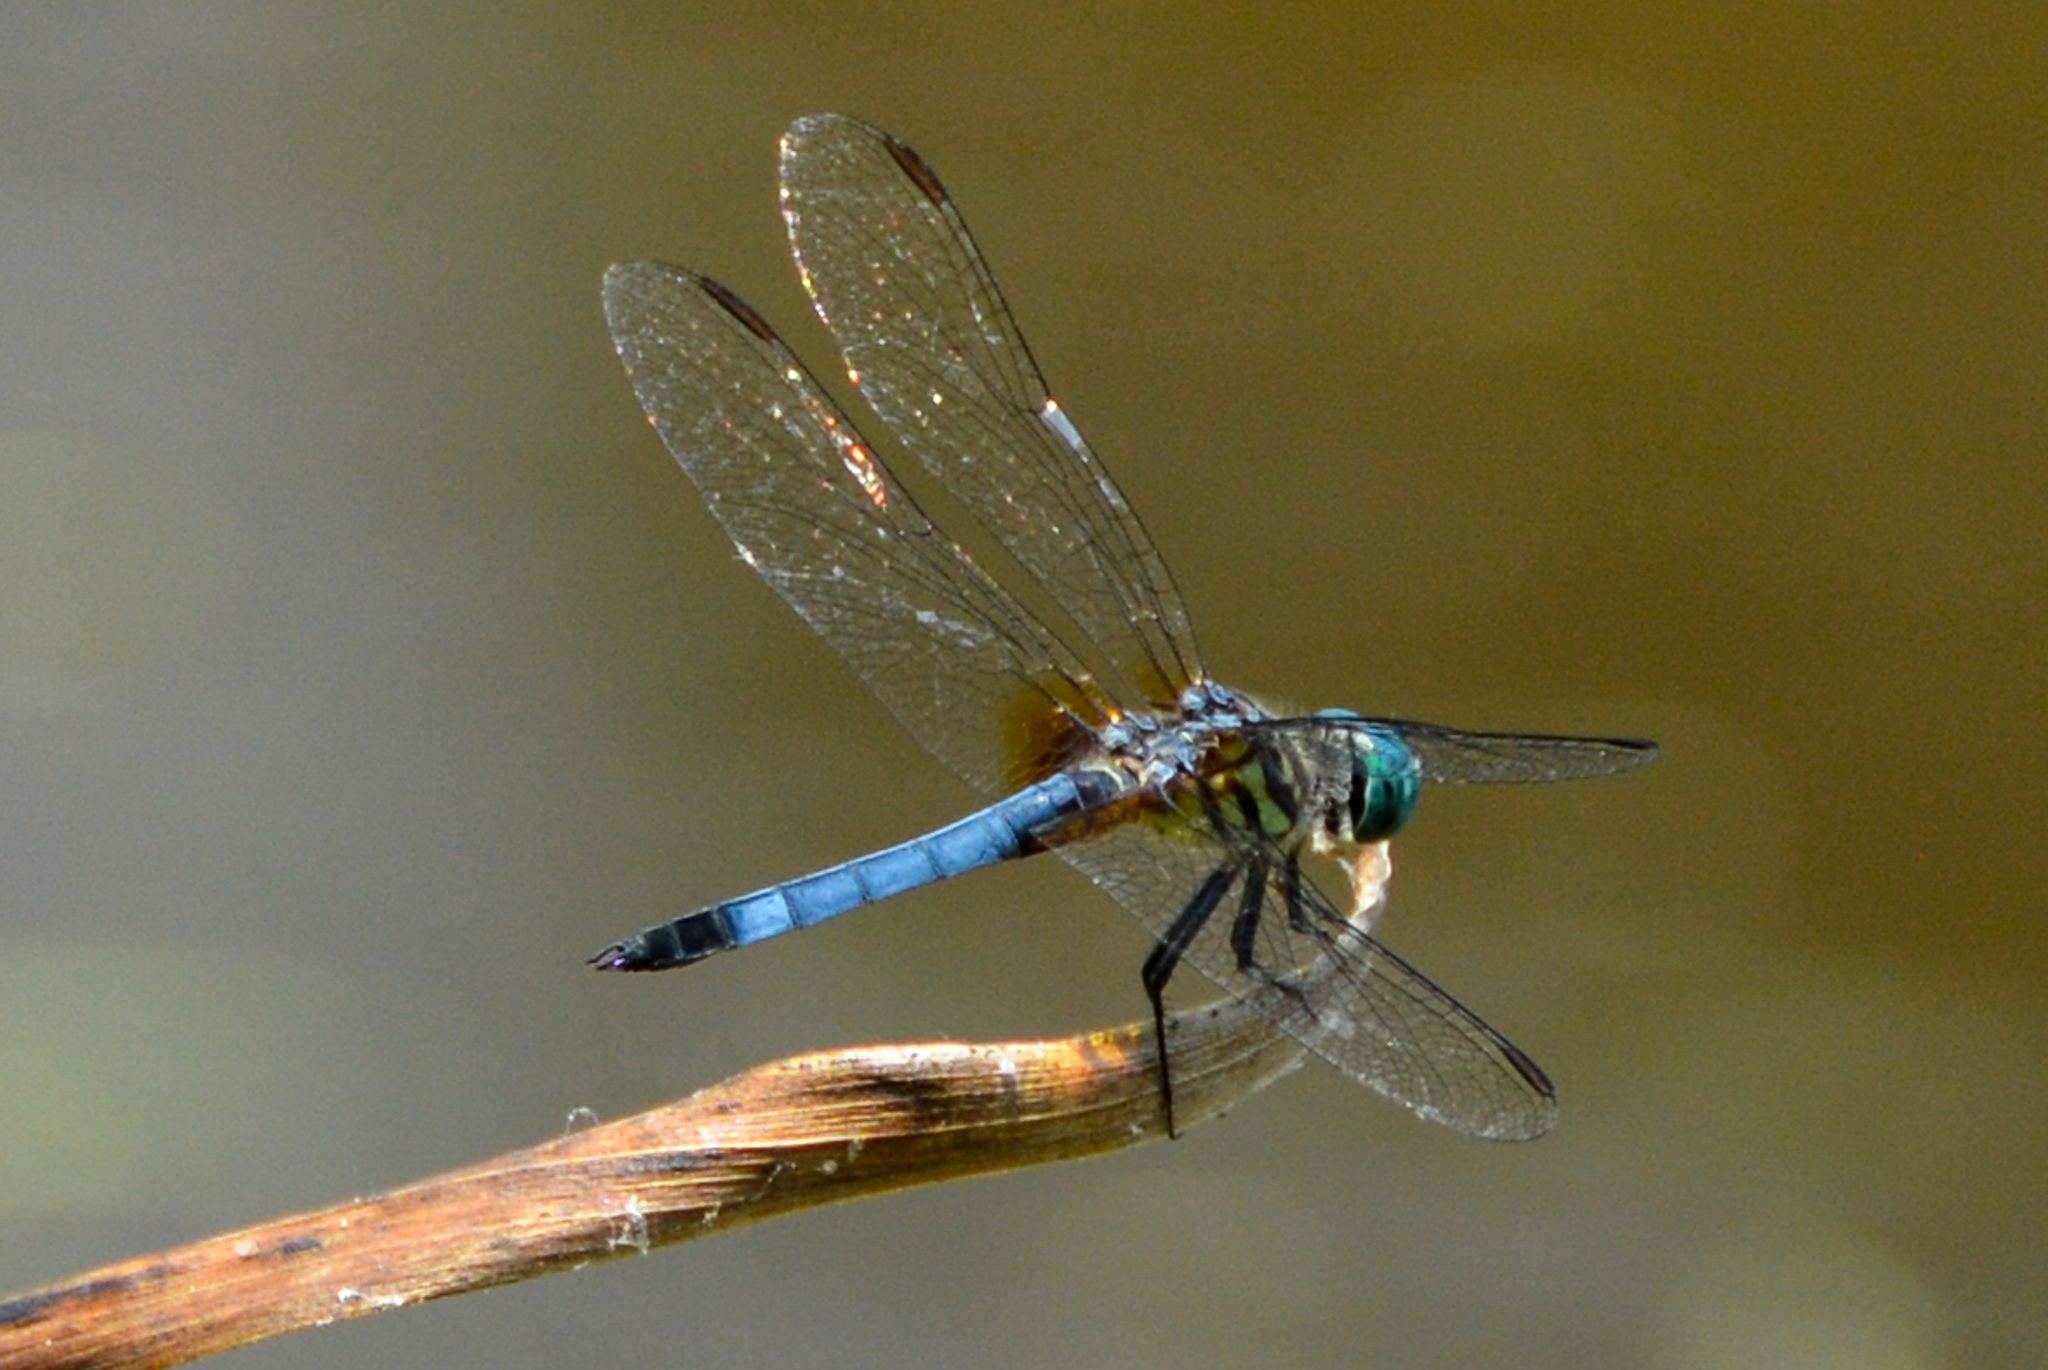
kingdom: Animalia
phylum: Arthropoda
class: Insecta
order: Odonata
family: Libellulidae
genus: Pachydiplax
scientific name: Pachydiplax longipennis
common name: Blue dasher
